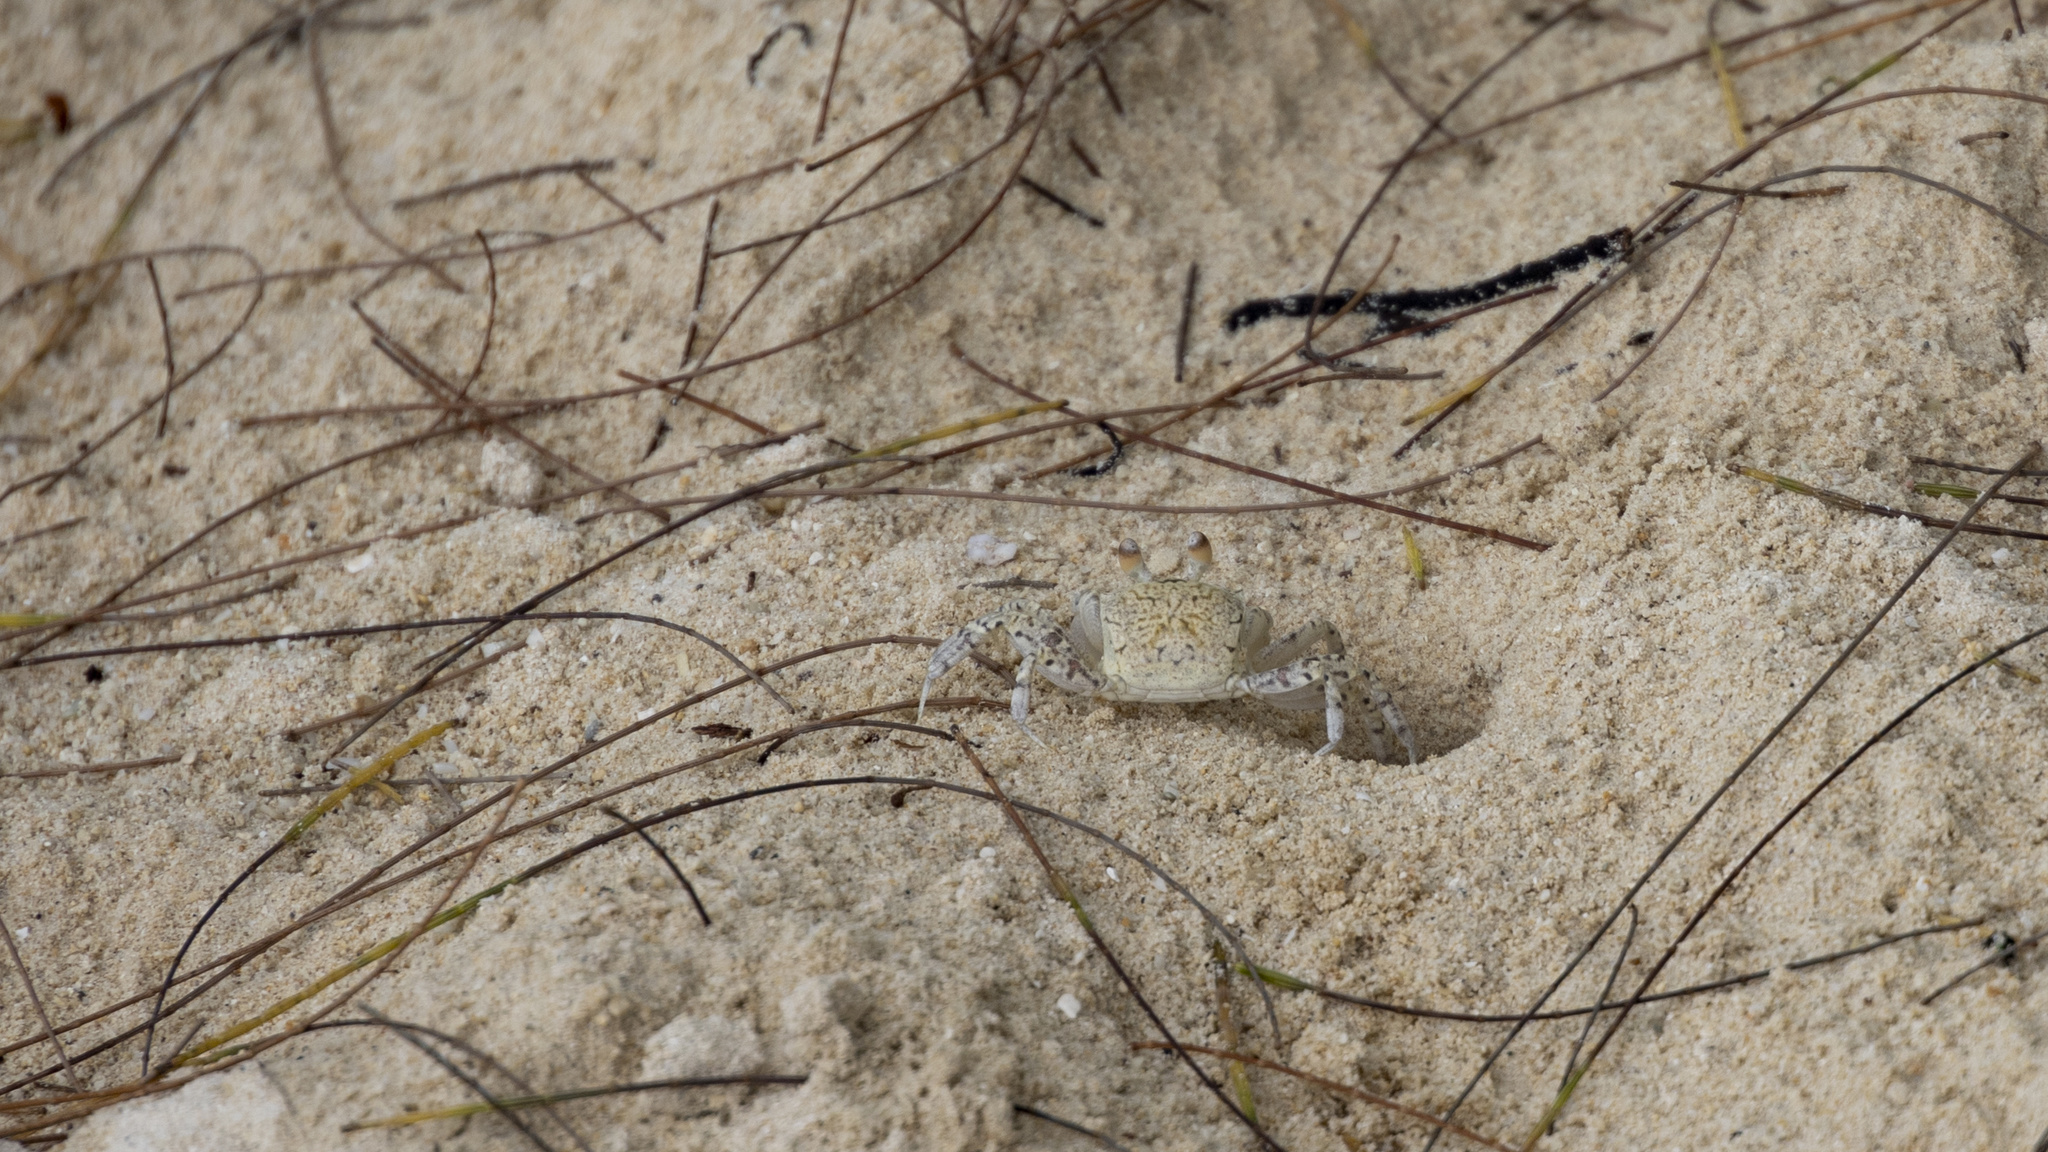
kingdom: Animalia
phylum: Arthropoda
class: Malacostraca
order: Decapoda
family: Ocypodidae
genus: Ocypode
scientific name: Ocypode pallidula
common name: Pallid ghost crab
